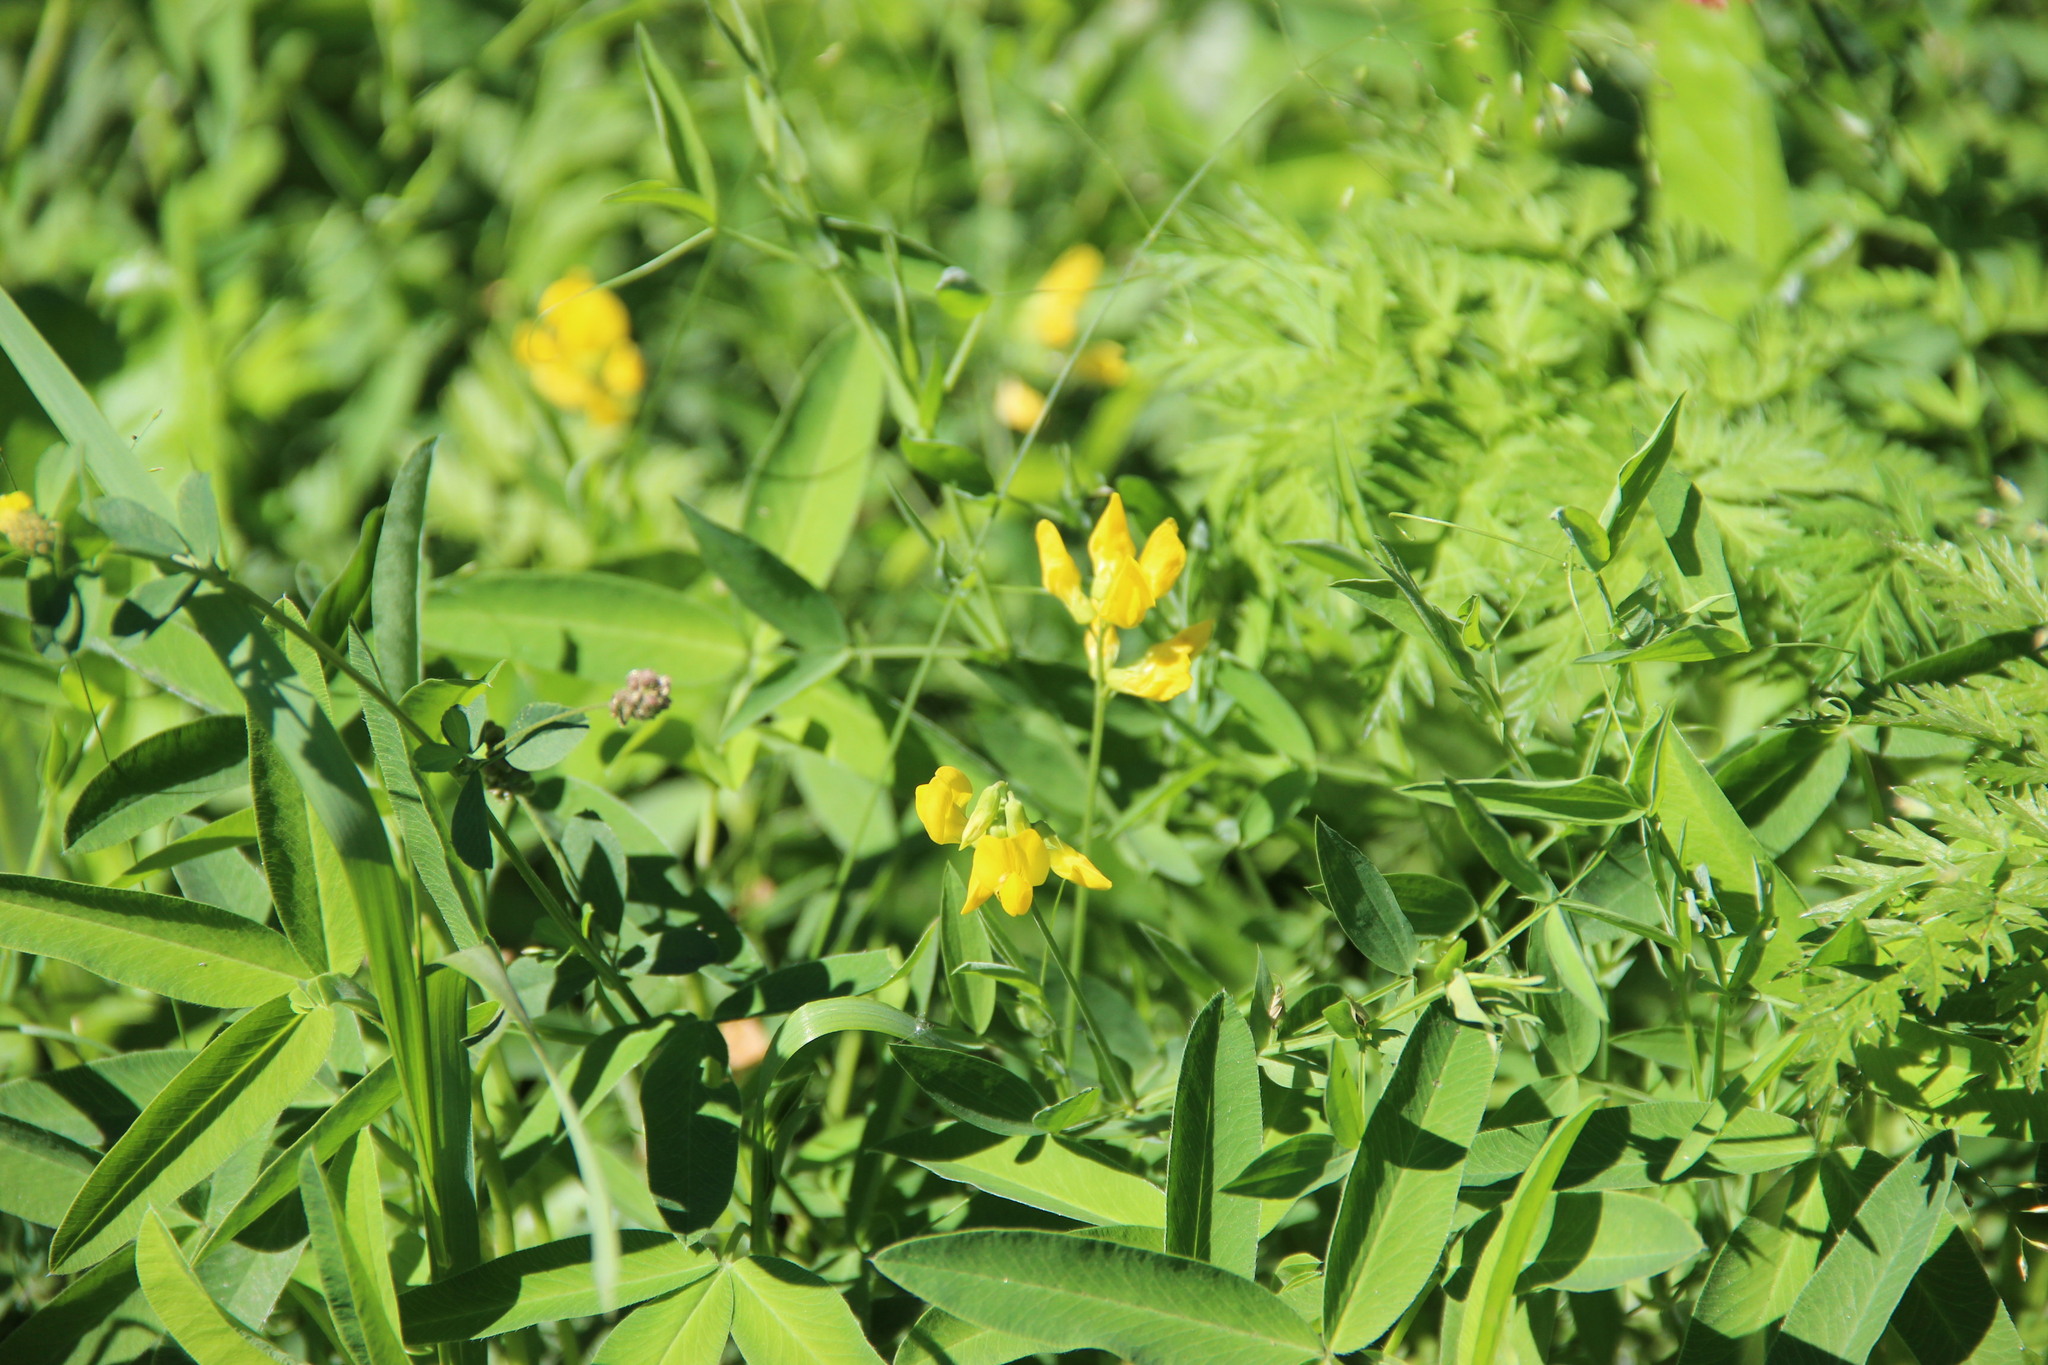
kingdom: Plantae
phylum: Tracheophyta
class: Magnoliopsida
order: Fabales
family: Fabaceae
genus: Lathyrus
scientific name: Lathyrus pratensis
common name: Meadow vetchling
